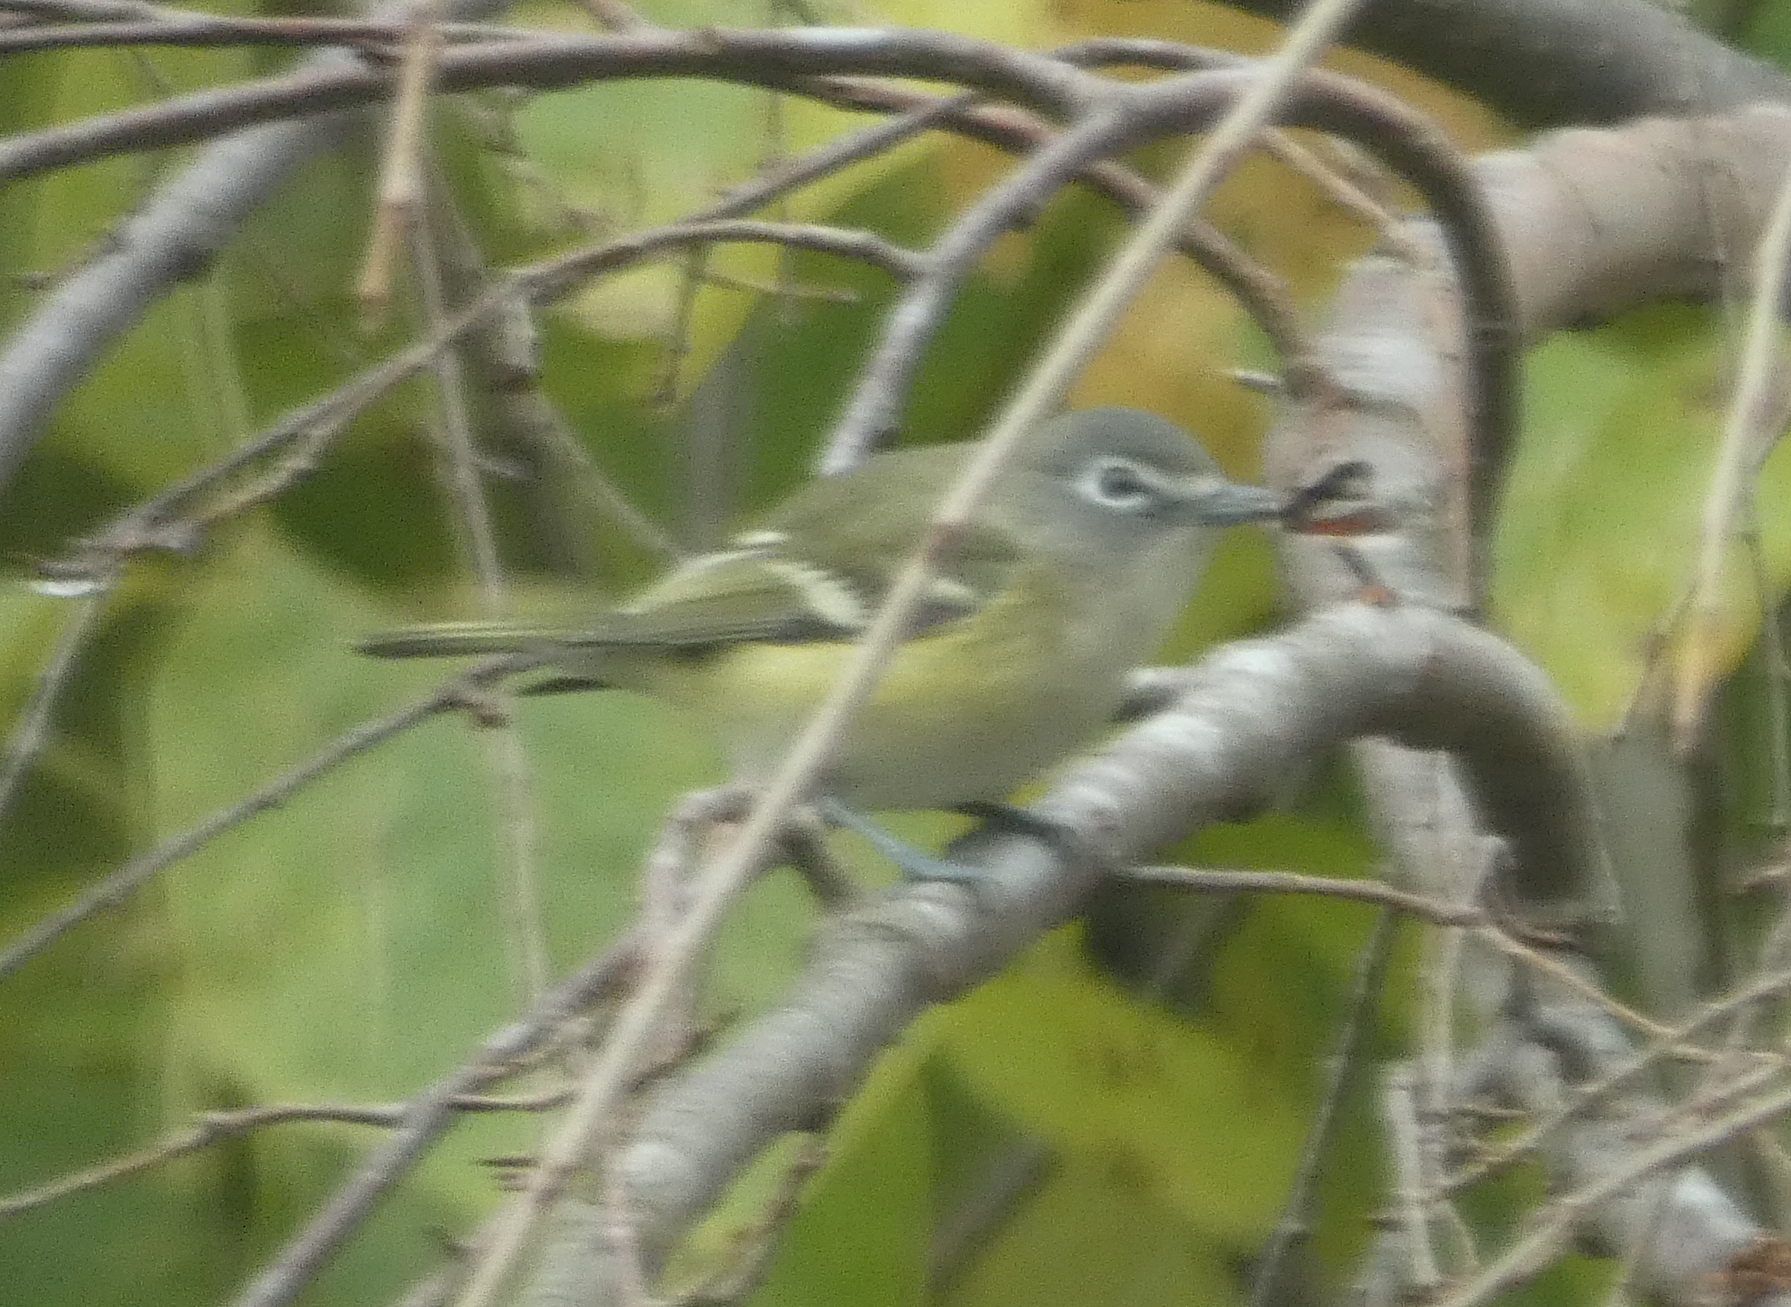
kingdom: Animalia
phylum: Chordata
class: Aves
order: Passeriformes
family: Vireonidae
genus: Vireo
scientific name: Vireo solitarius
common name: Blue-headed vireo
